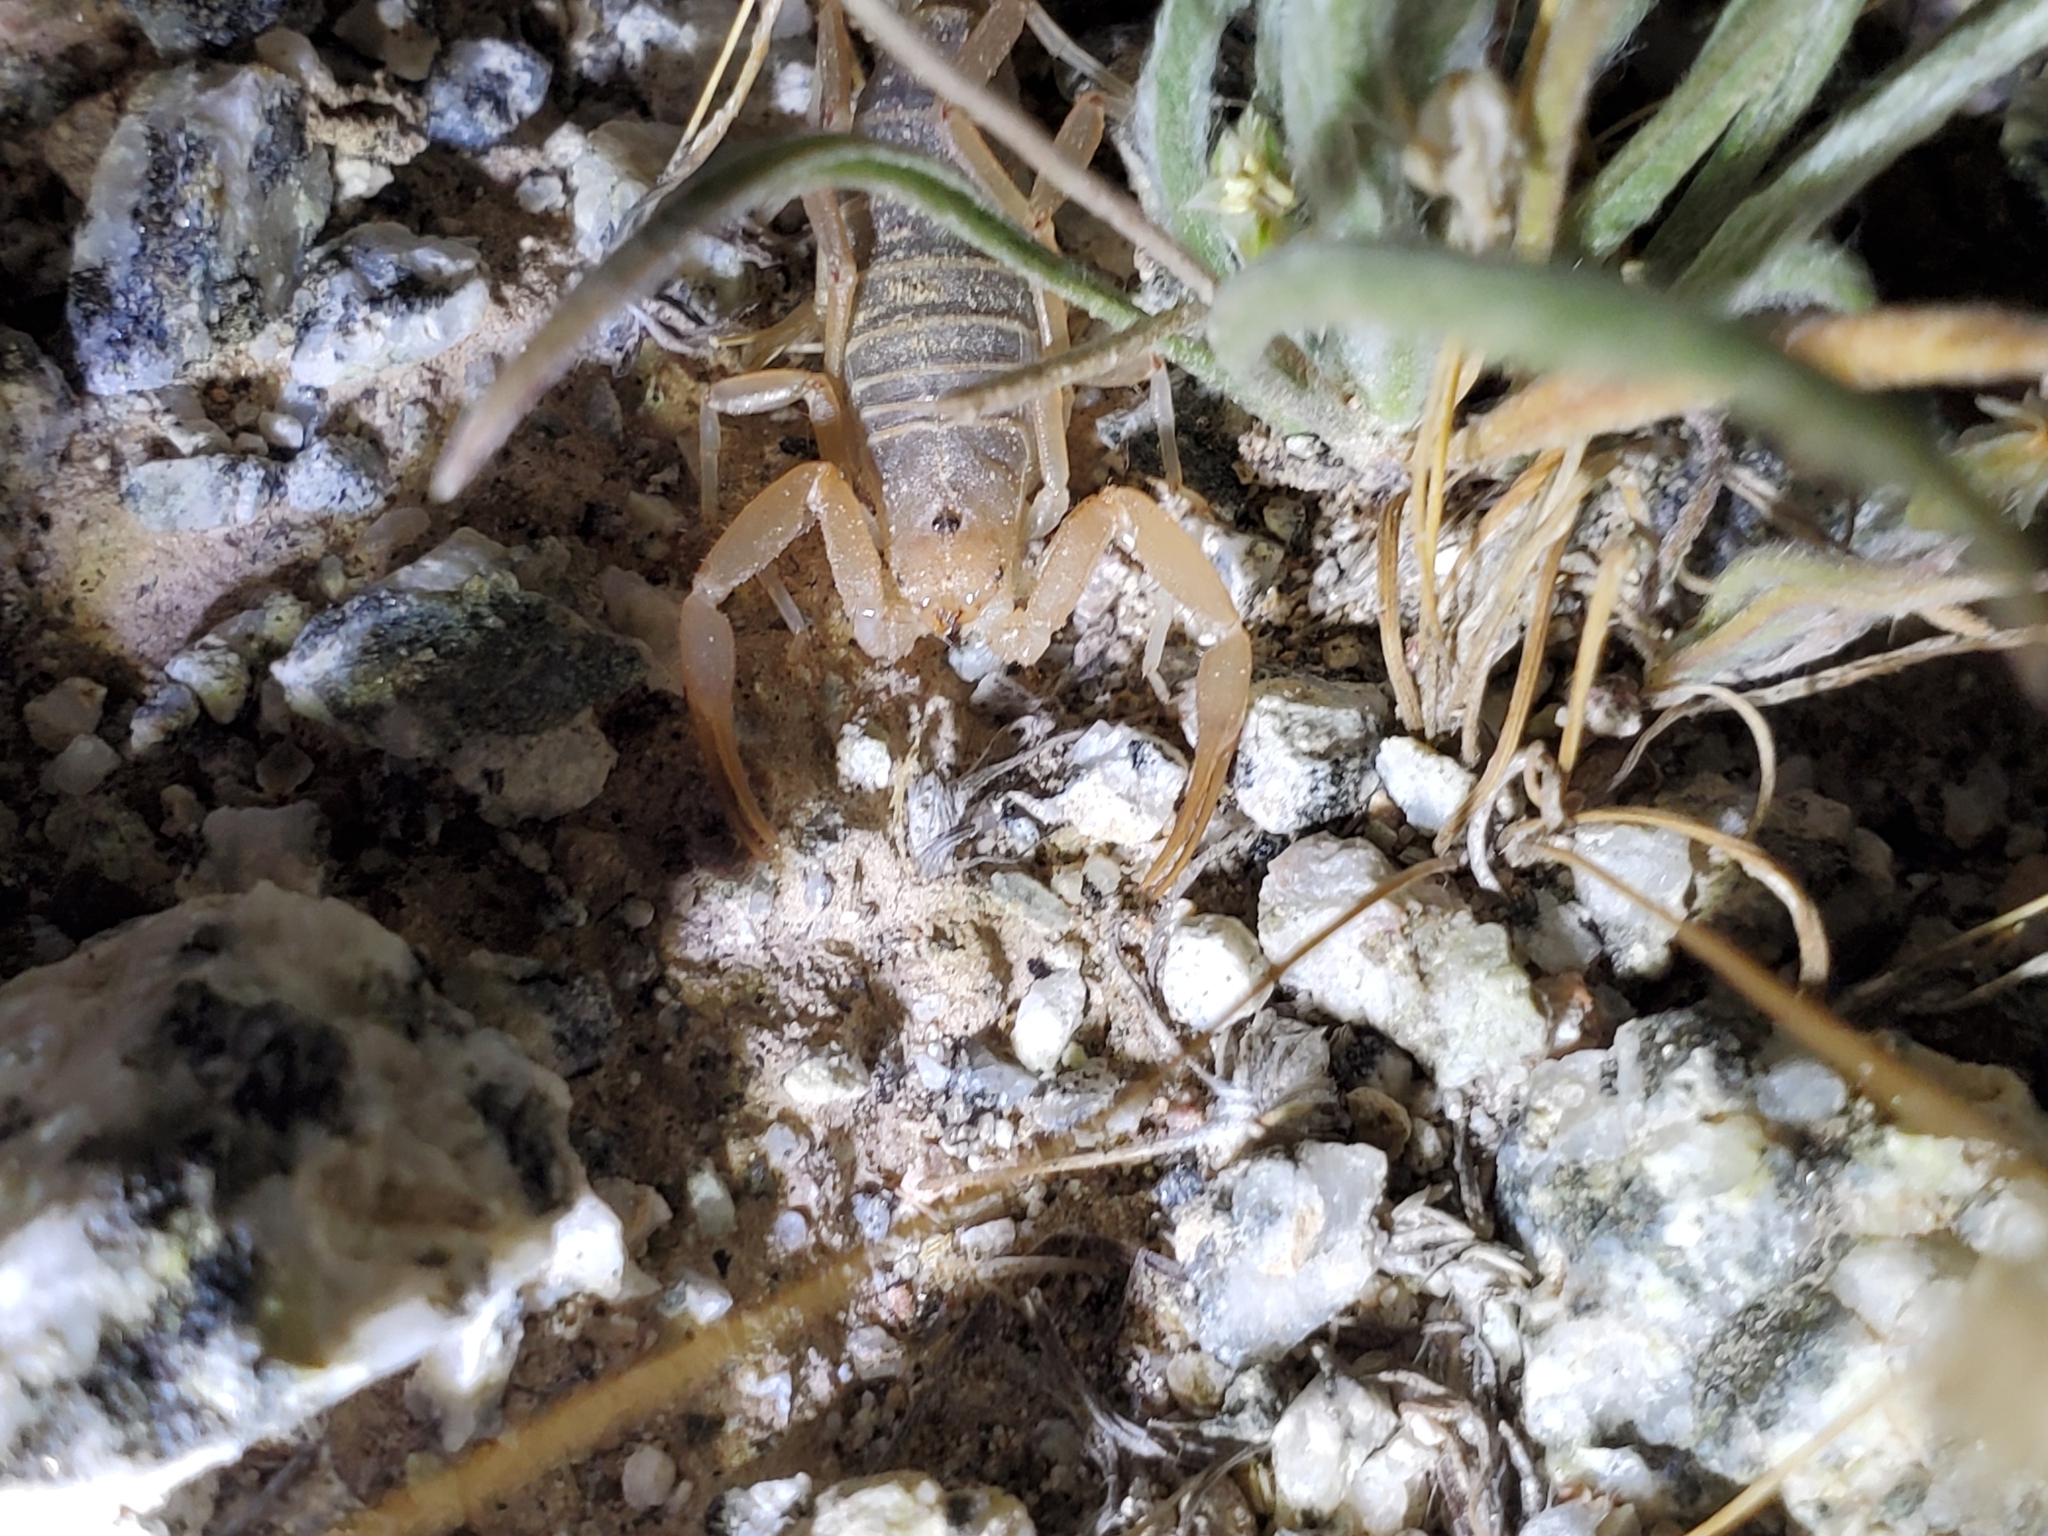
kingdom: Animalia
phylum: Arthropoda
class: Arachnida
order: Scorpiones
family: Vaejovidae
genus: Paravaejovis
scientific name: Paravaejovis waeringi
